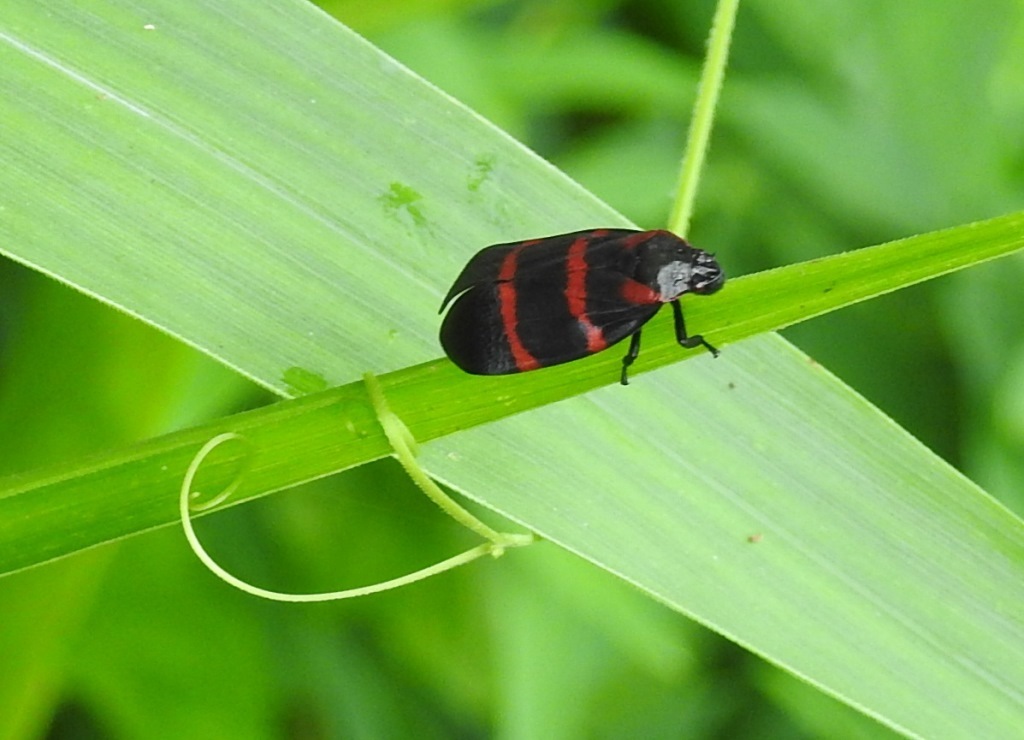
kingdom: Animalia
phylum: Arthropoda
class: Insecta
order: Hemiptera
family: Cercopidae
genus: Huaina
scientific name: Huaina inca
